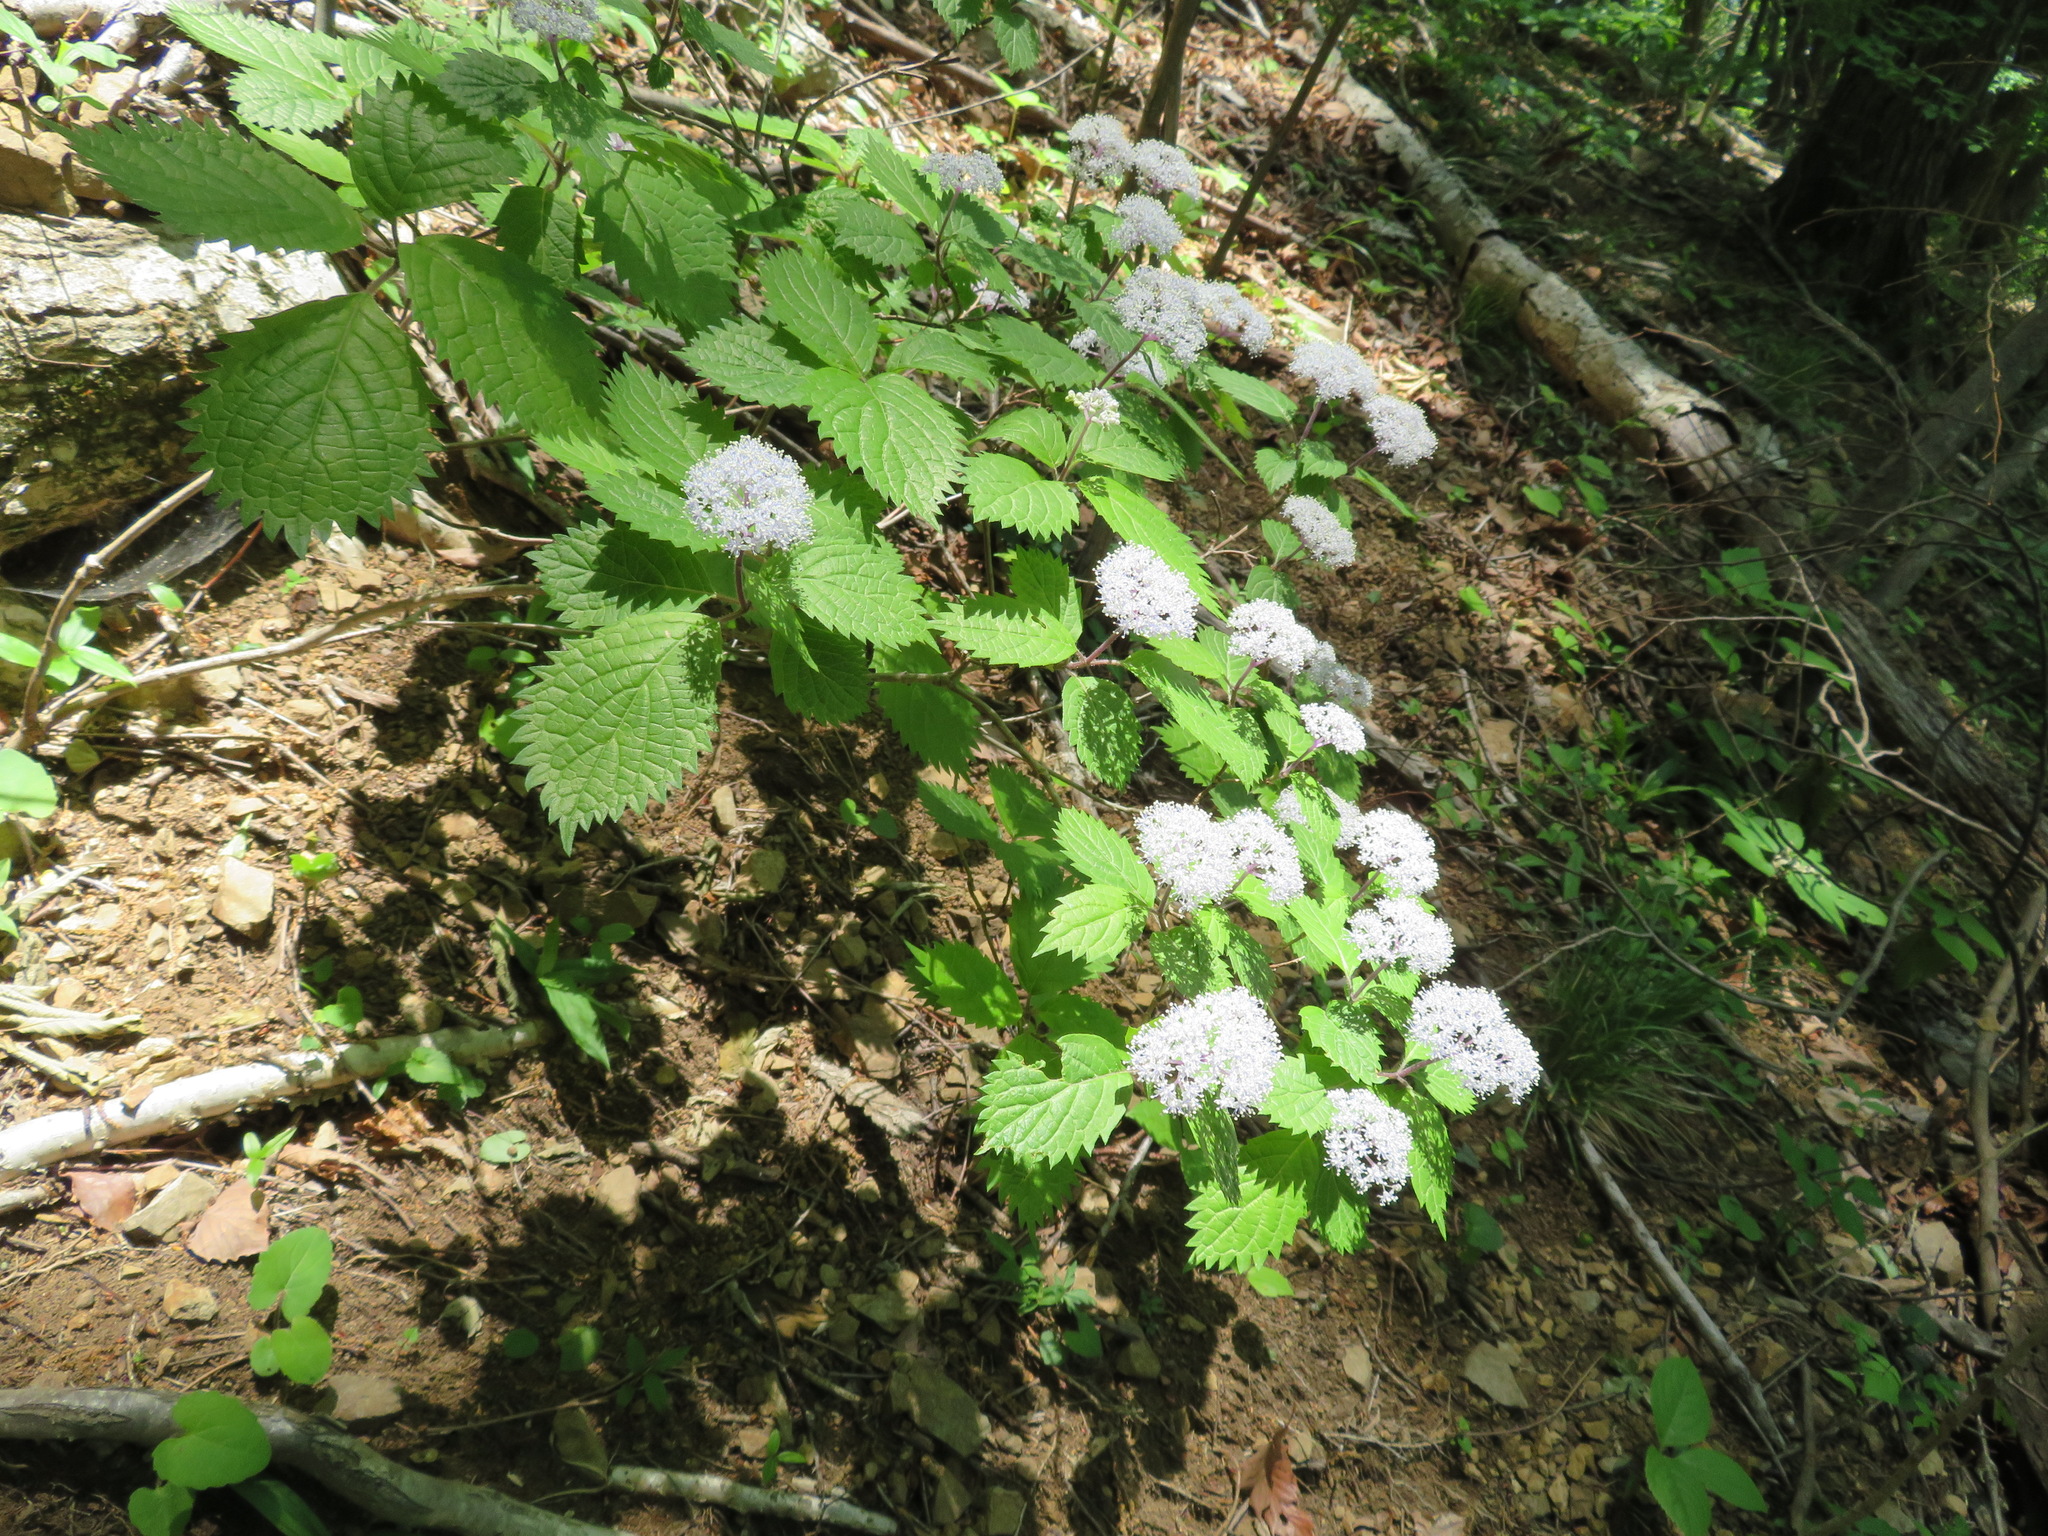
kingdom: Plantae
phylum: Tracheophyta
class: Magnoliopsida
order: Cornales
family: Hydrangeaceae
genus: Hydrangea
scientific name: Hydrangea hirta
